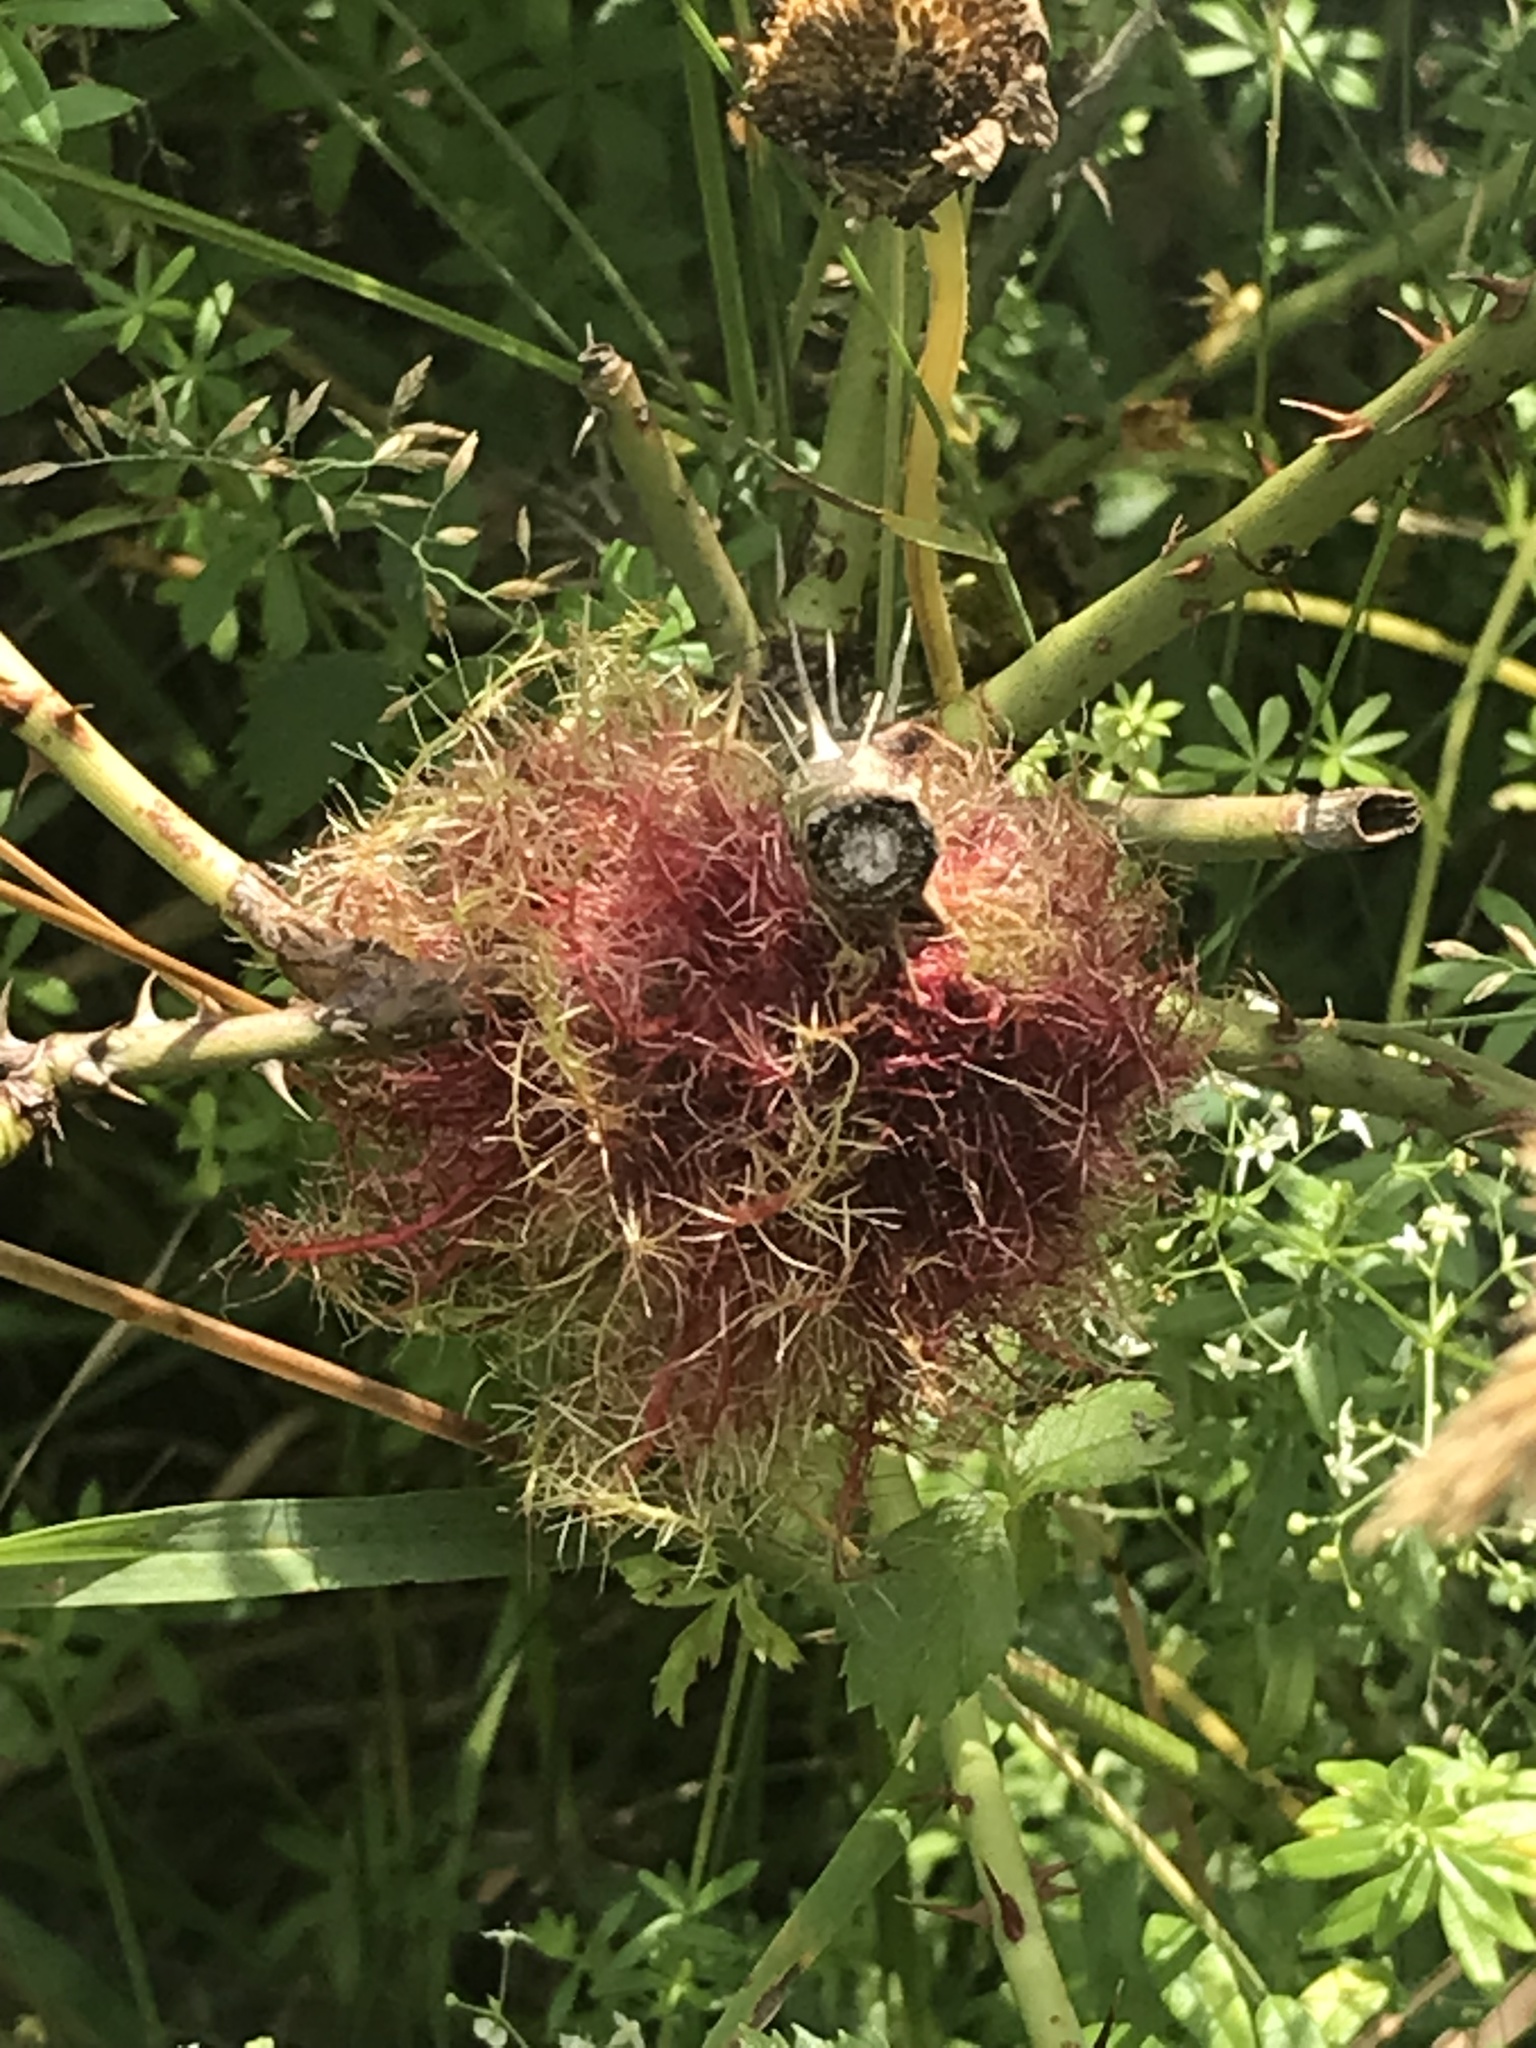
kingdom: Animalia
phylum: Arthropoda
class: Insecta
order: Hymenoptera
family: Cynipidae
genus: Diplolepis
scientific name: Diplolepis rosae
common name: Bedeguar gall
